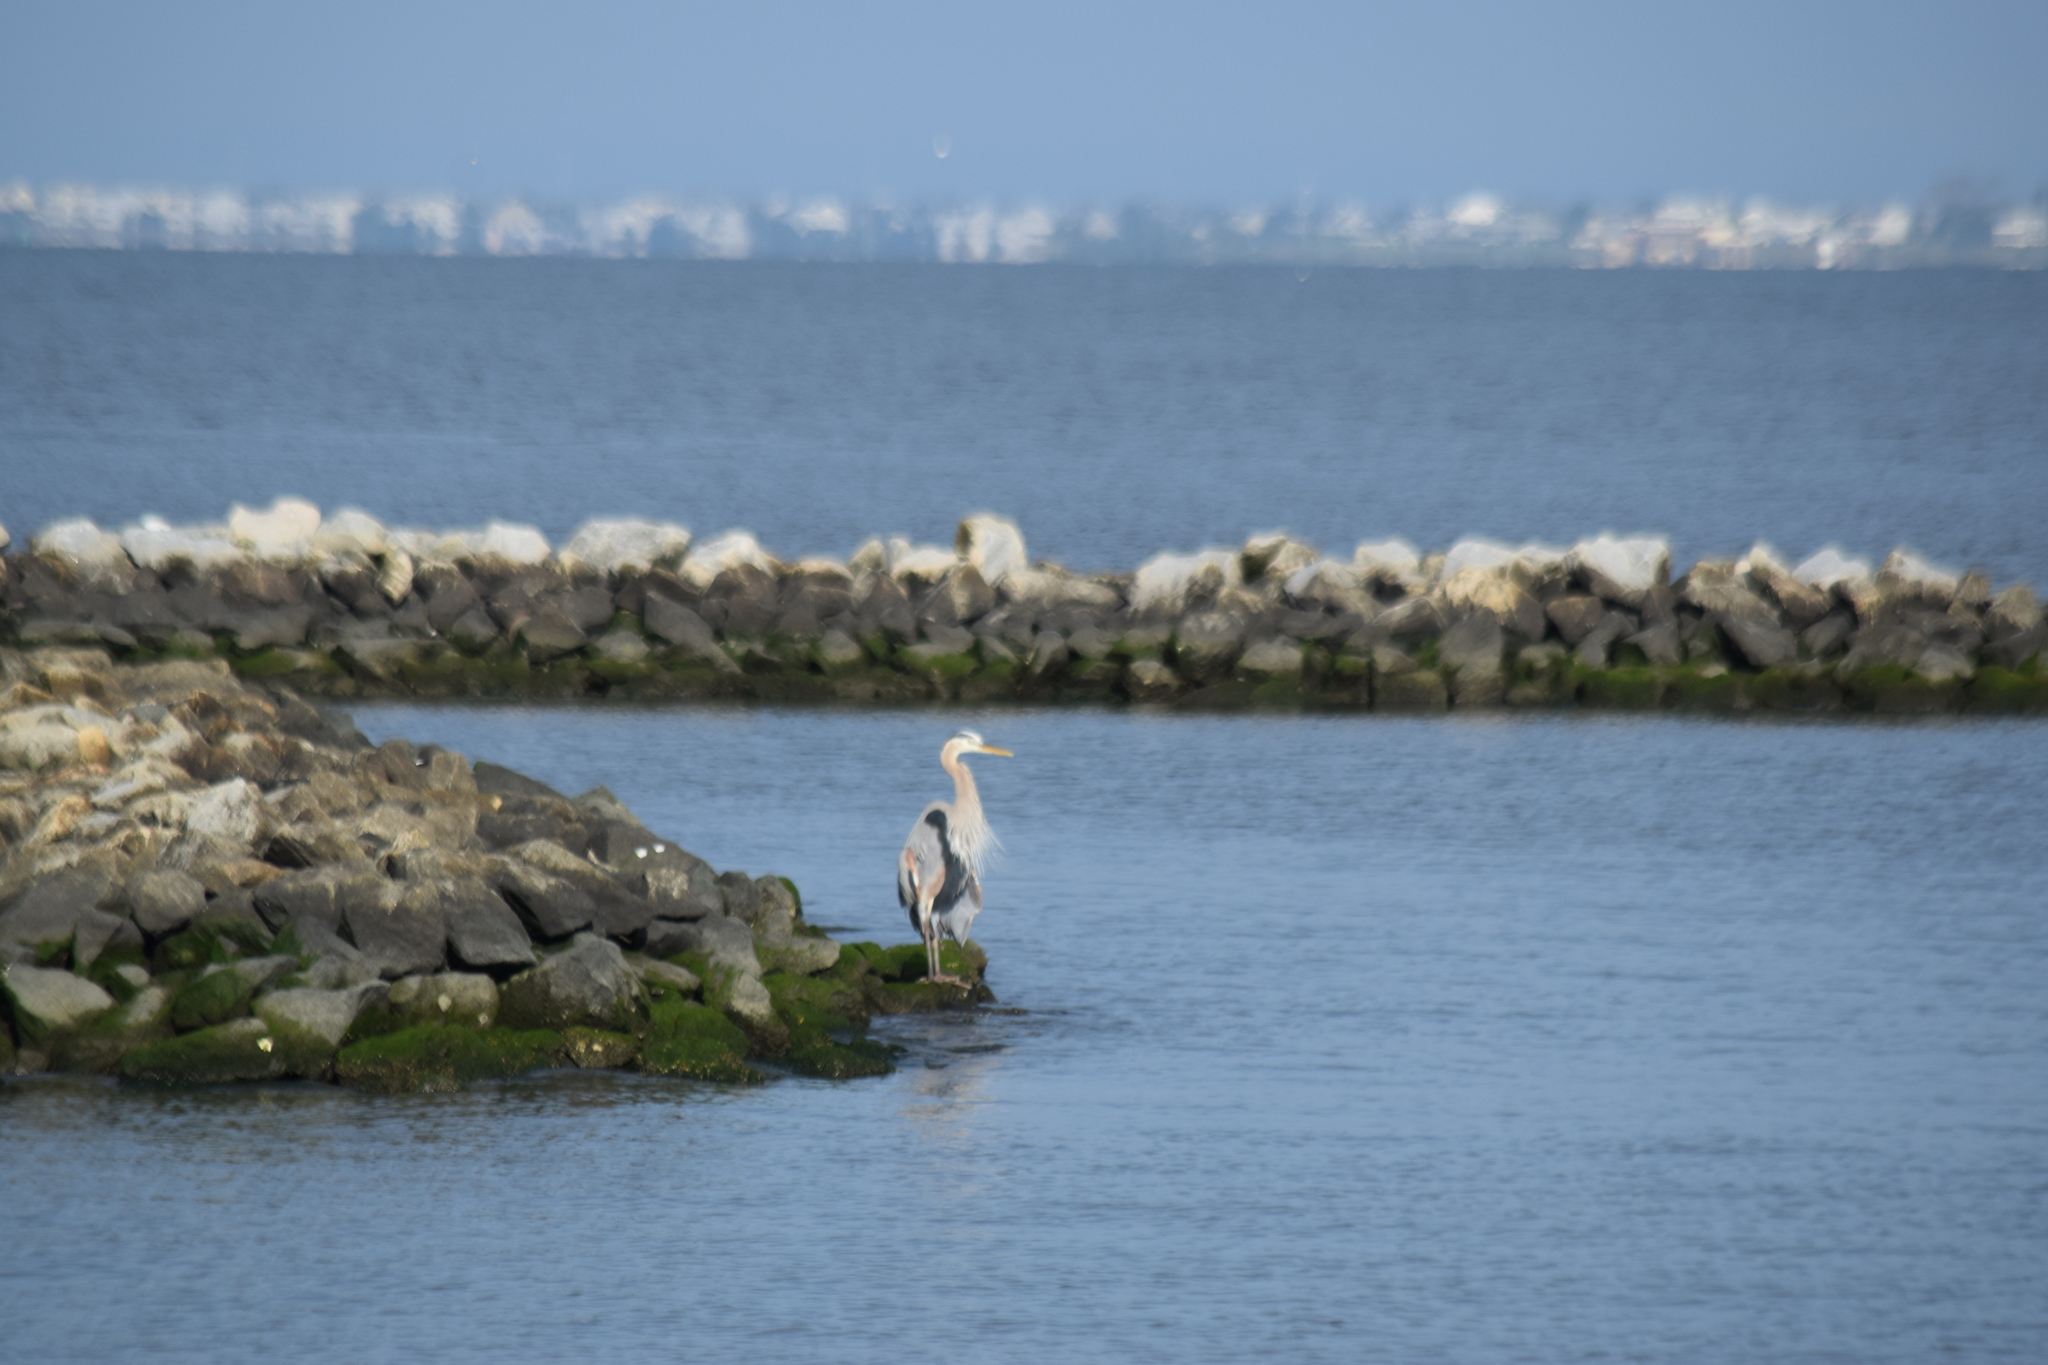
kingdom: Animalia
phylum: Chordata
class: Aves
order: Pelecaniformes
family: Ardeidae
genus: Ardea
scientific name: Ardea herodias
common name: Great blue heron
